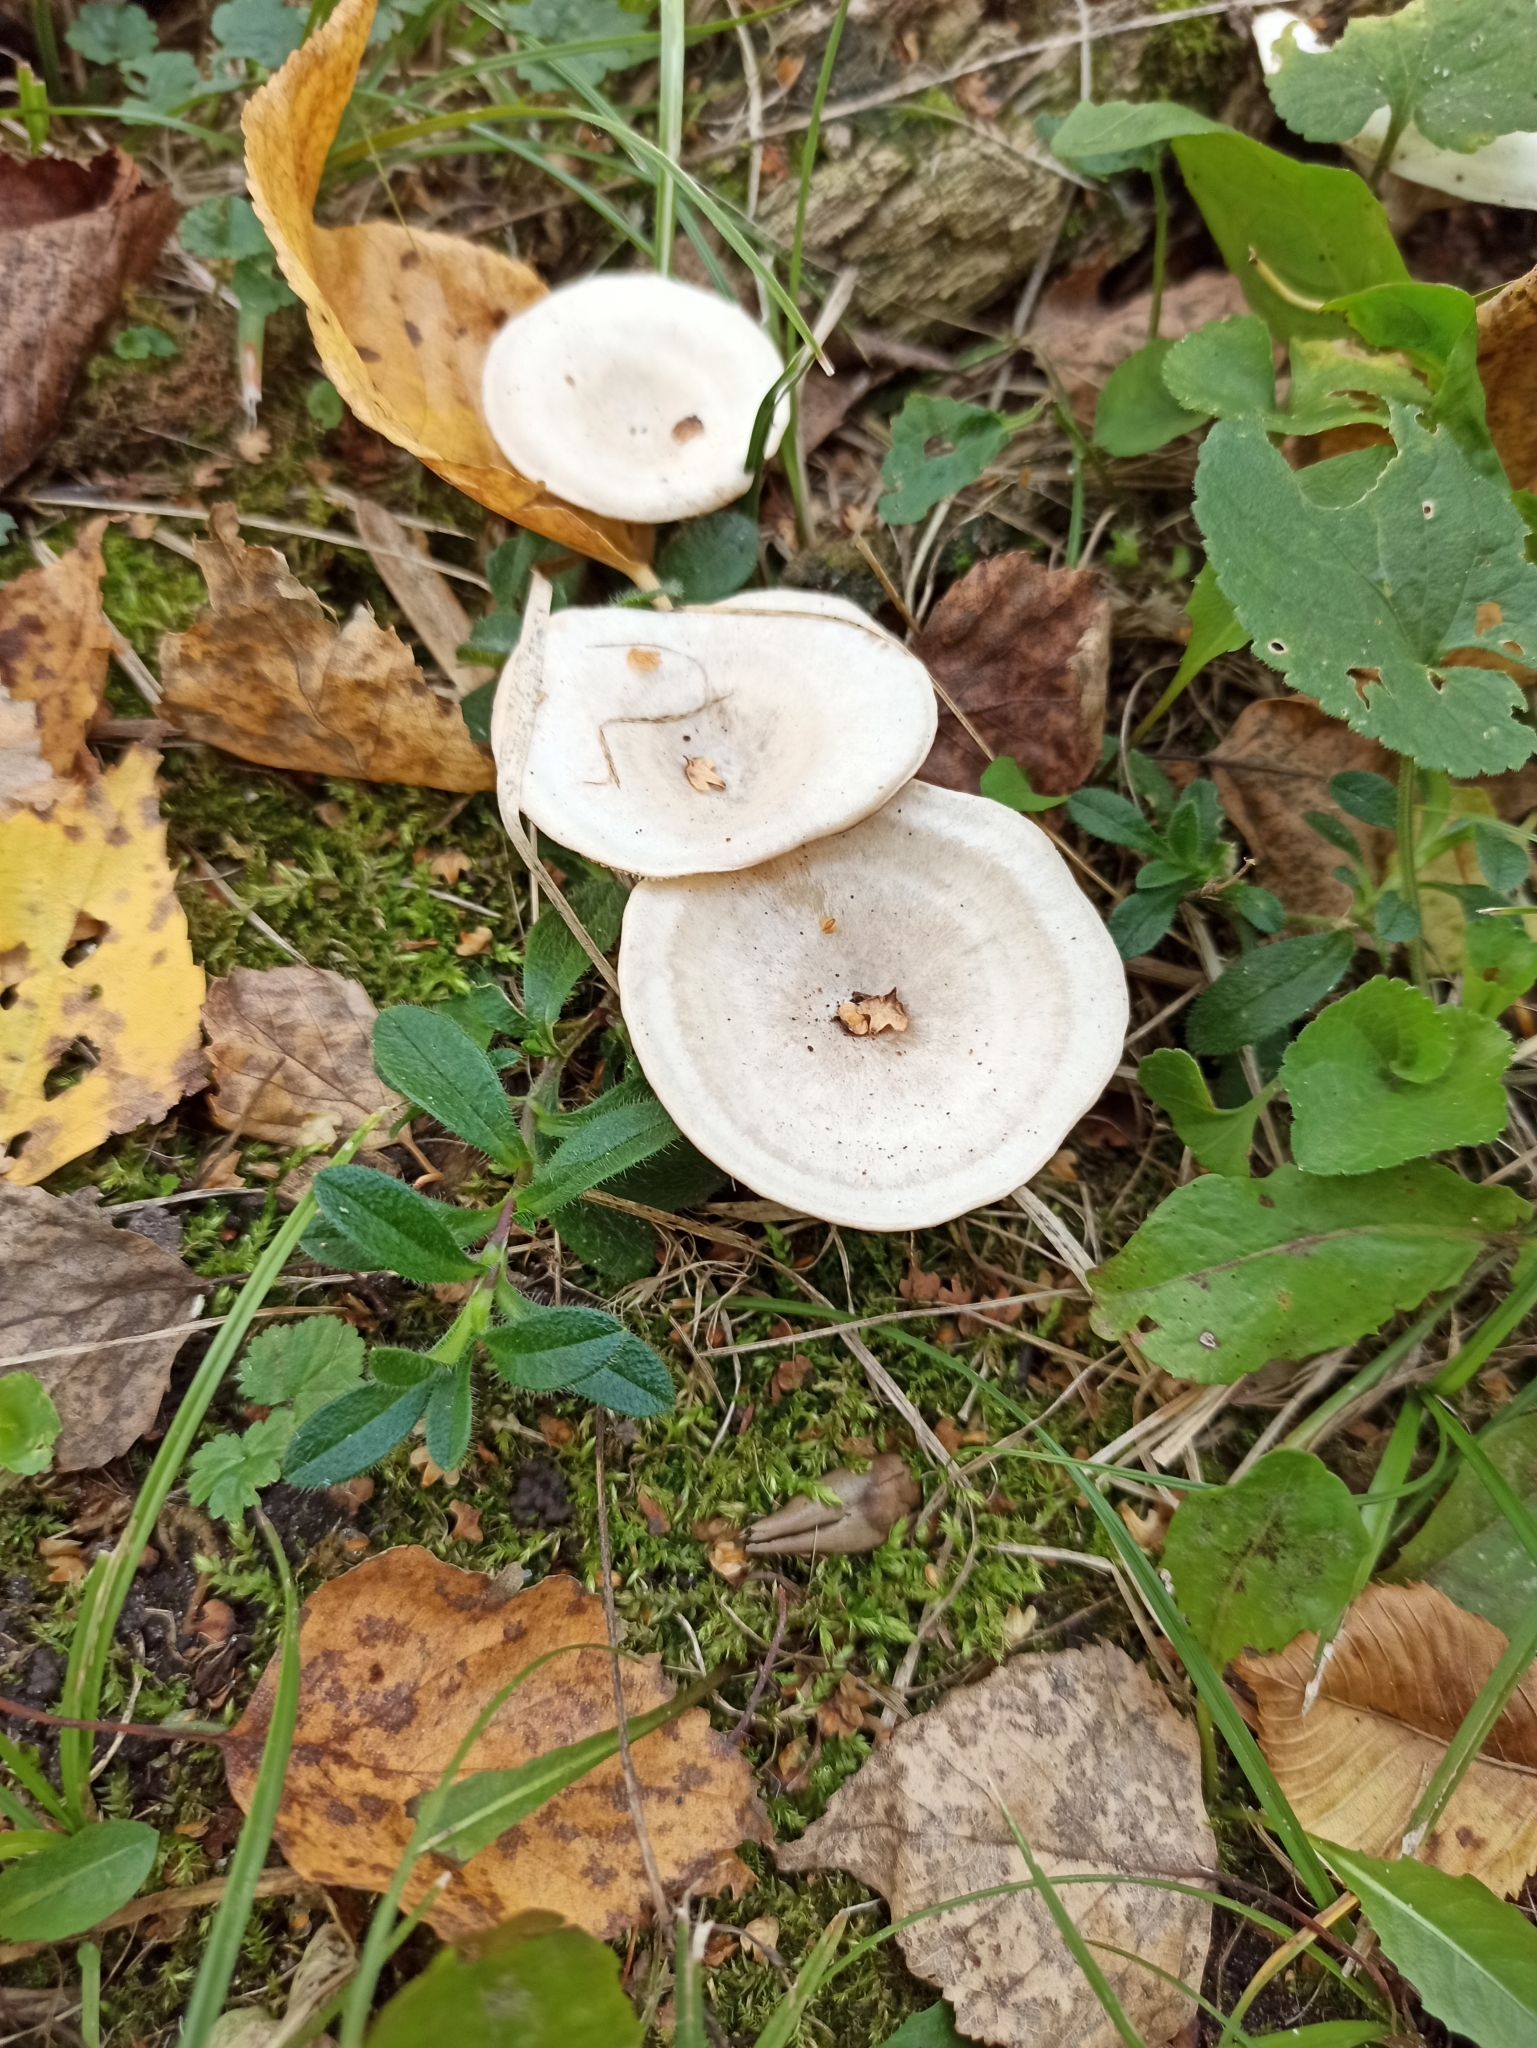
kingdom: Fungi
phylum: Basidiomycota
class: Agaricomycetes
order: Agaricales
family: Tricholomataceae
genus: Collybia
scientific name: Collybia
